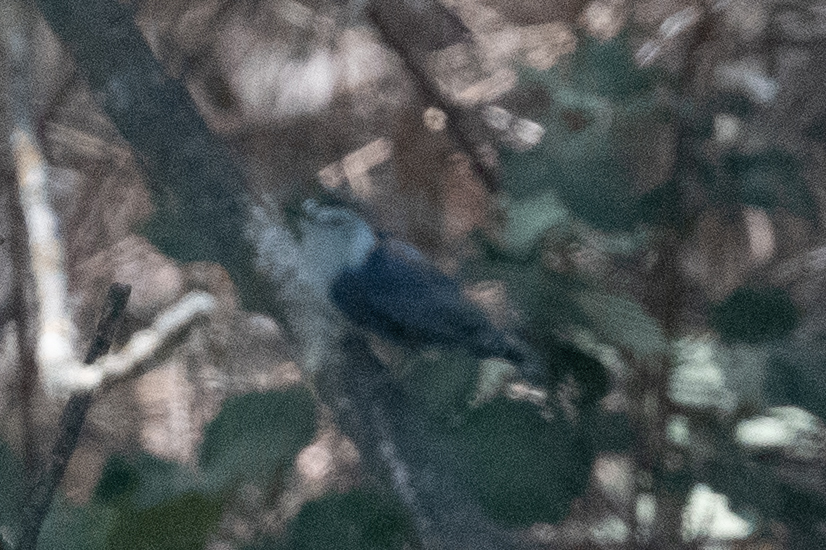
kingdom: Animalia
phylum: Chordata
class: Aves
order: Passeriformes
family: Sittidae
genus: Sitta
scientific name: Sitta carolinensis
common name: White-breasted nuthatch
